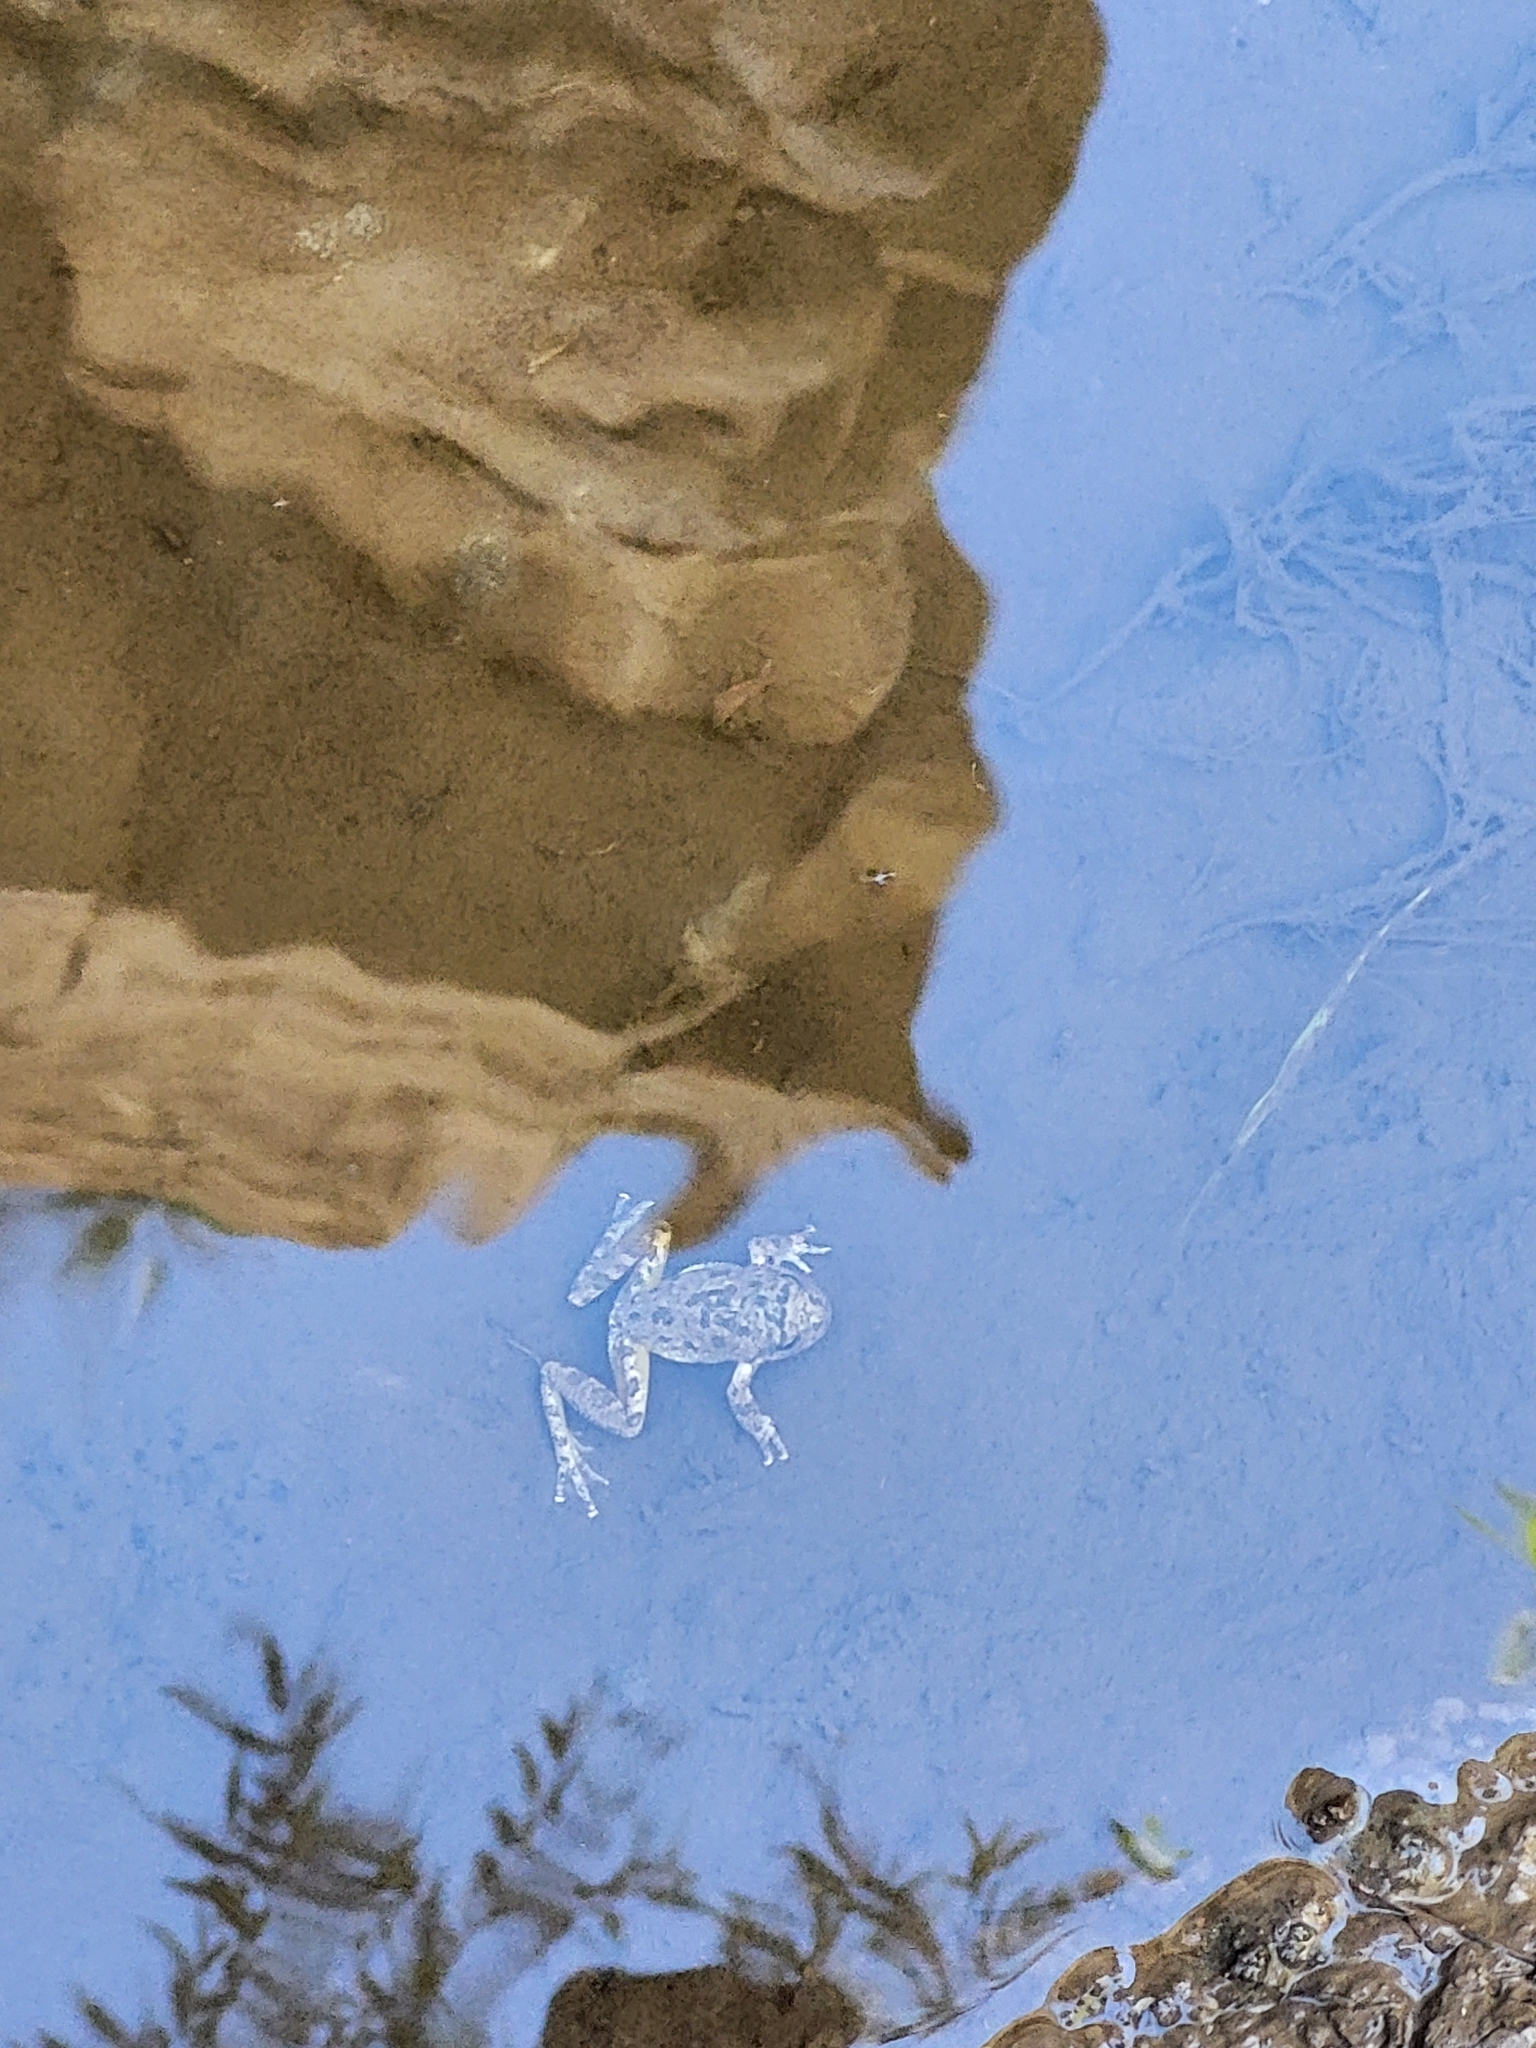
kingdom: Animalia
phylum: Chordata
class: Amphibia
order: Anura
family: Hylidae
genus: Pseudacris
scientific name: Pseudacris cadaverina
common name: California chorus frog
